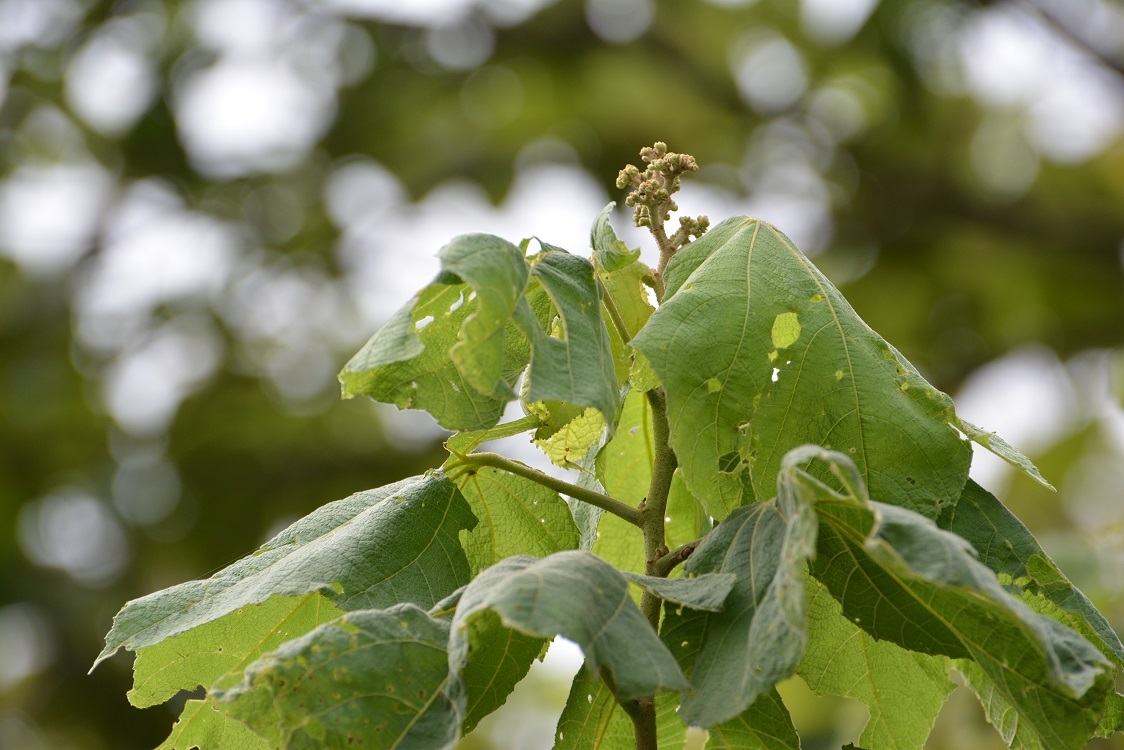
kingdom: Plantae
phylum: Tracheophyta
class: Magnoliopsida
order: Malvales
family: Malvaceae
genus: Heliocarpus
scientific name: Heliocarpus americanus
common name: White moho
